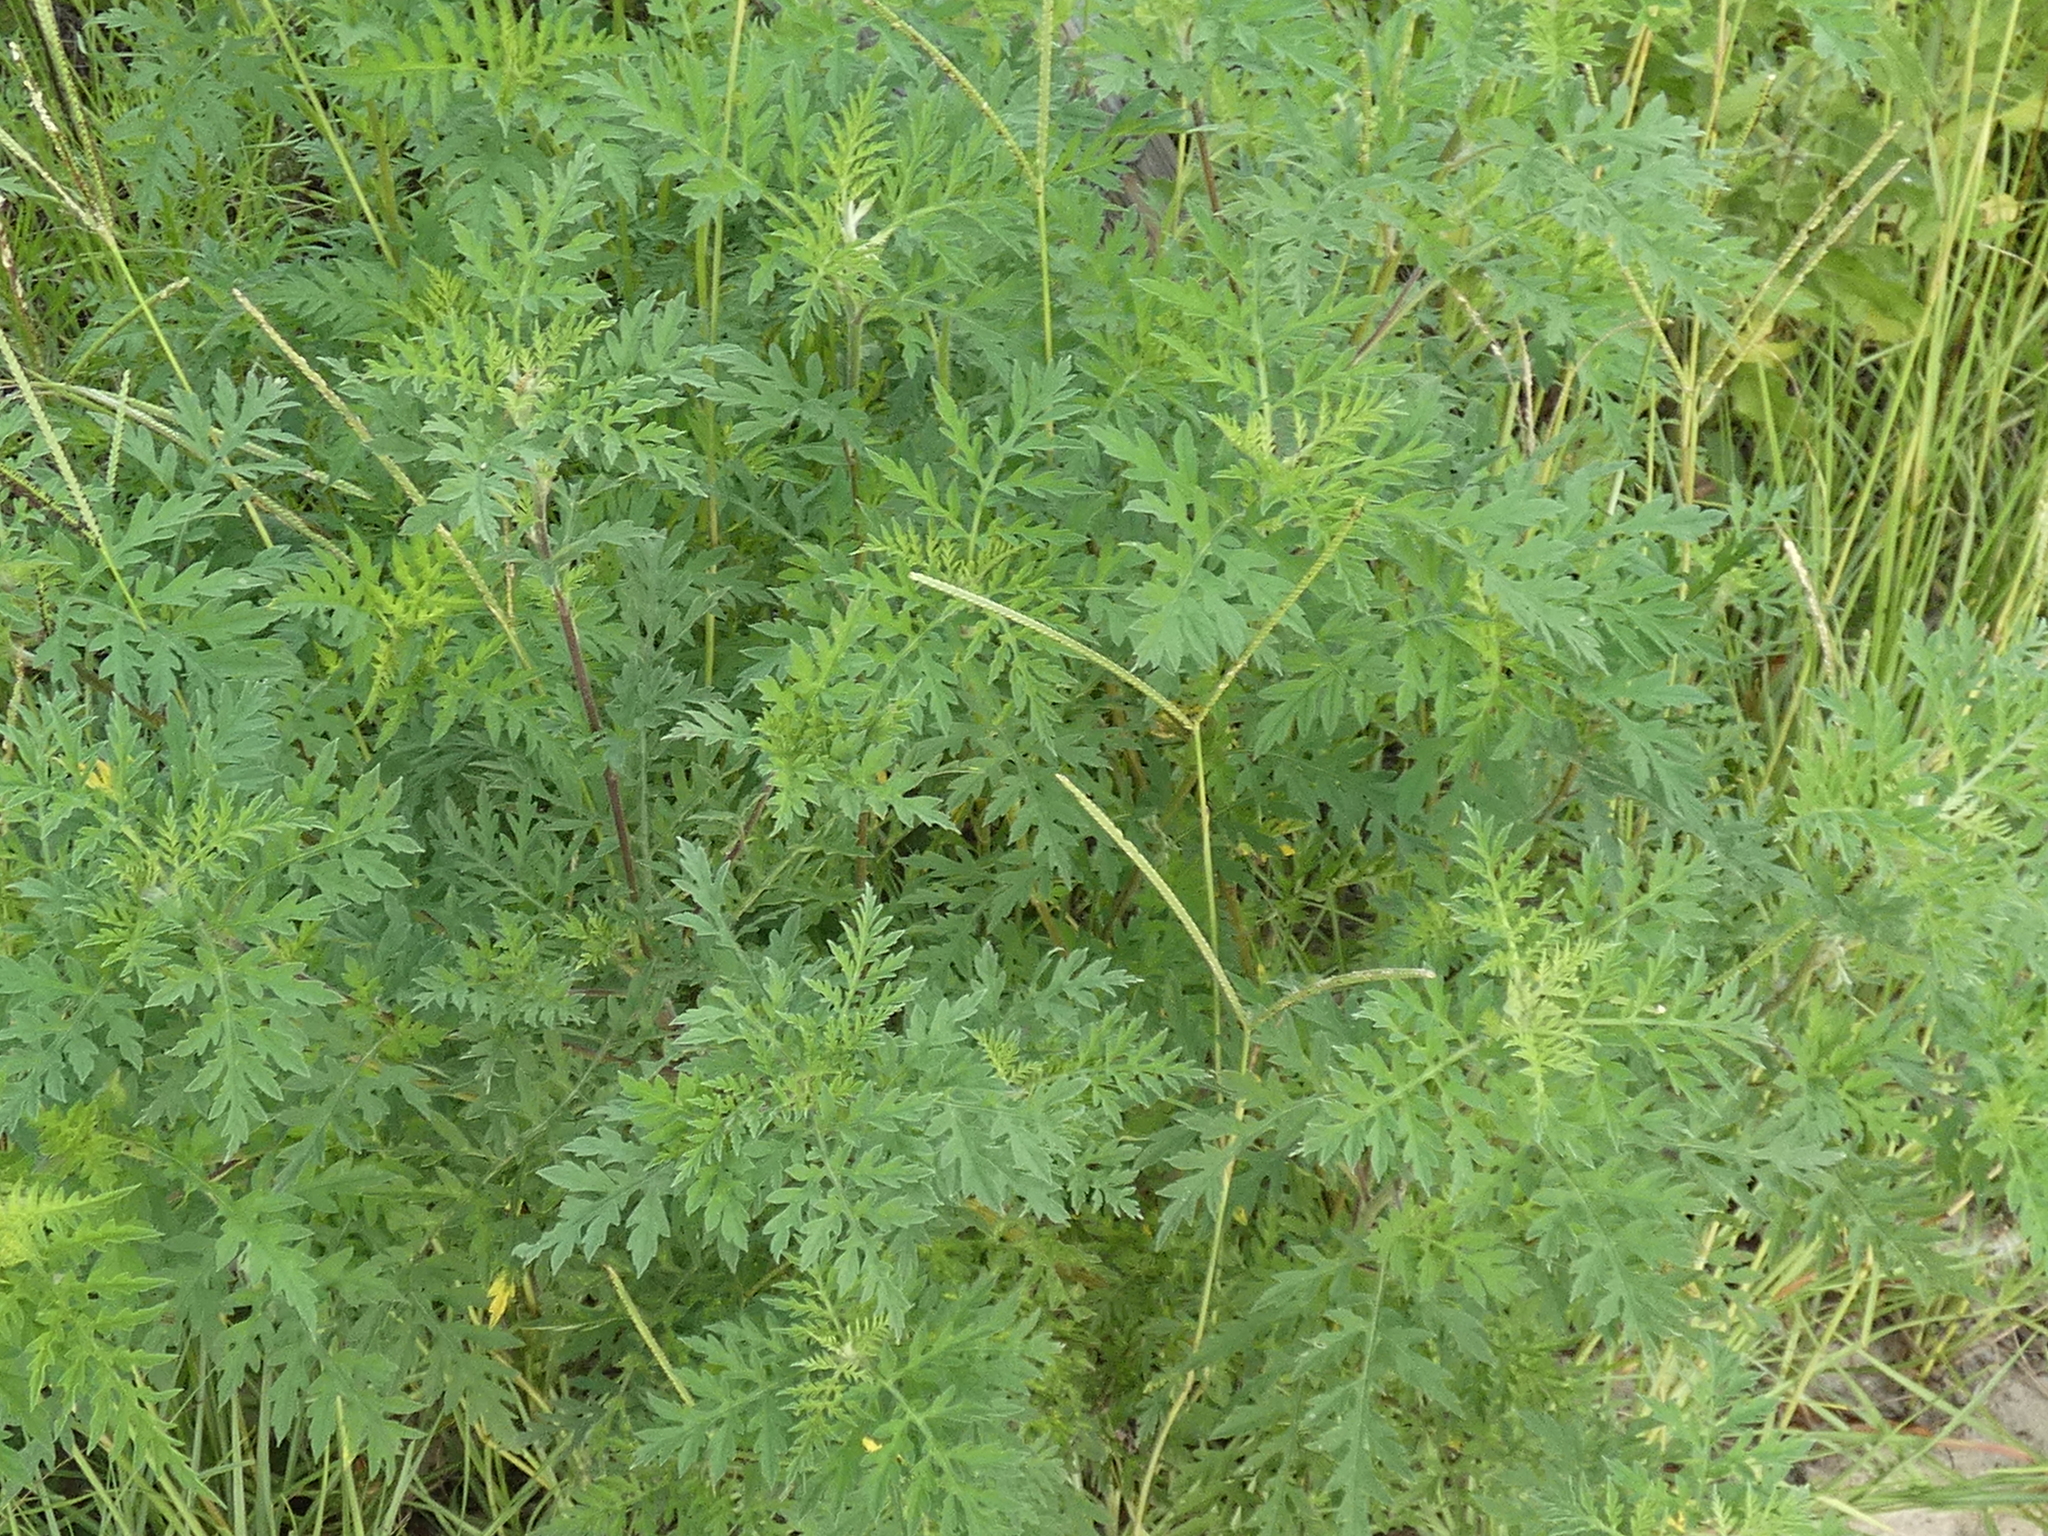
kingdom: Plantae
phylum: Tracheophyta
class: Magnoliopsida
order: Asterales
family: Asteraceae
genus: Ambrosia
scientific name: Ambrosia artemisiifolia
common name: Annual ragweed
